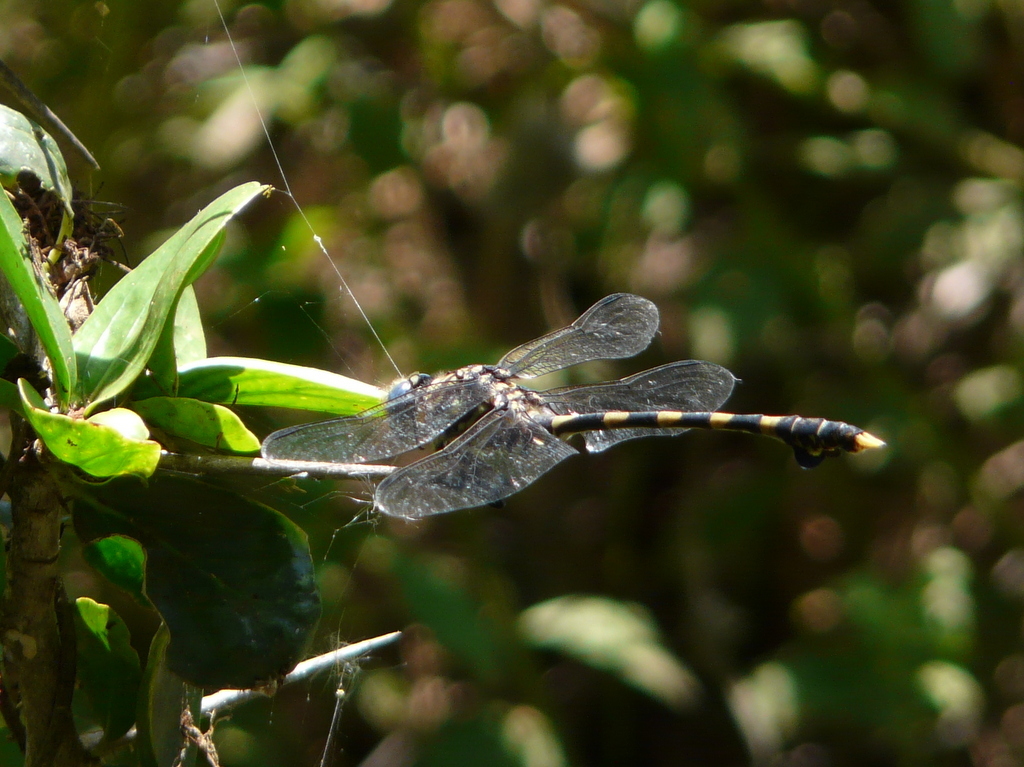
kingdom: Animalia
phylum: Arthropoda
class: Insecta
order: Odonata
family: Gomphidae
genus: Ictinogomphus
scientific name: Ictinogomphus ferox
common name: Common tiger
